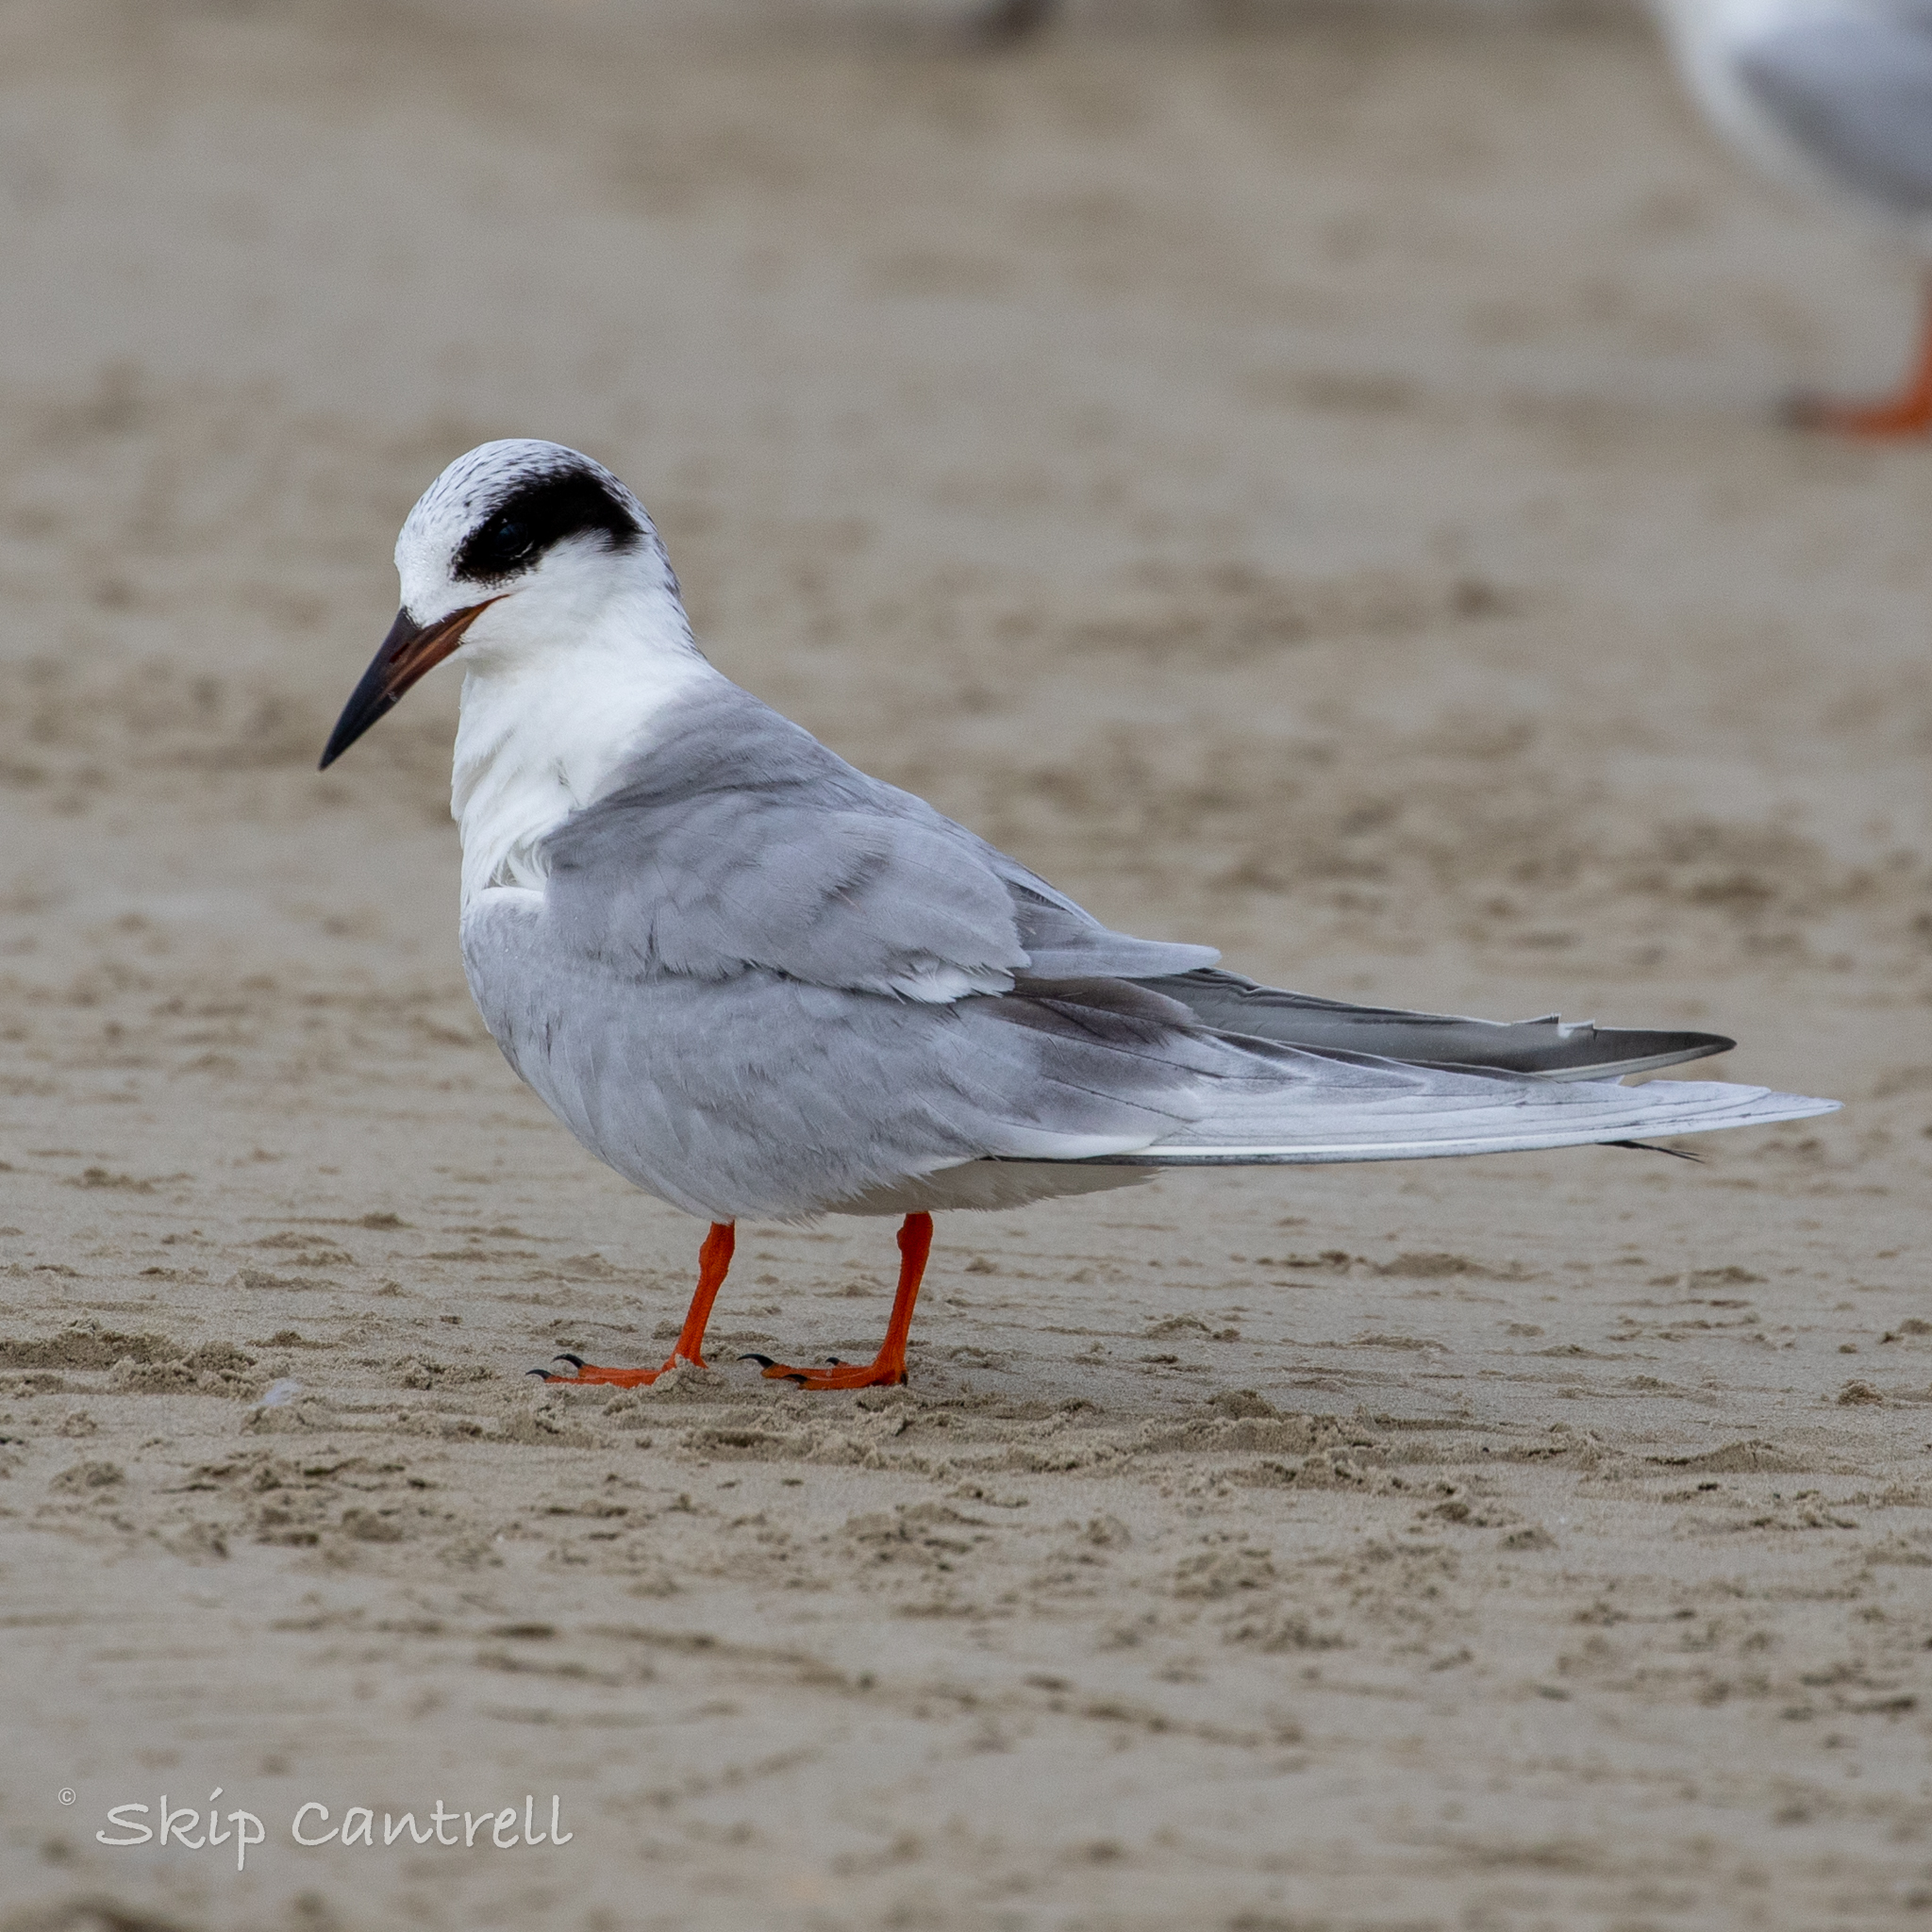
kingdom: Animalia
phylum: Chordata
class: Aves
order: Charadriiformes
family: Laridae
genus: Sterna
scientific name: Sterna forsteri
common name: Forster's tern
